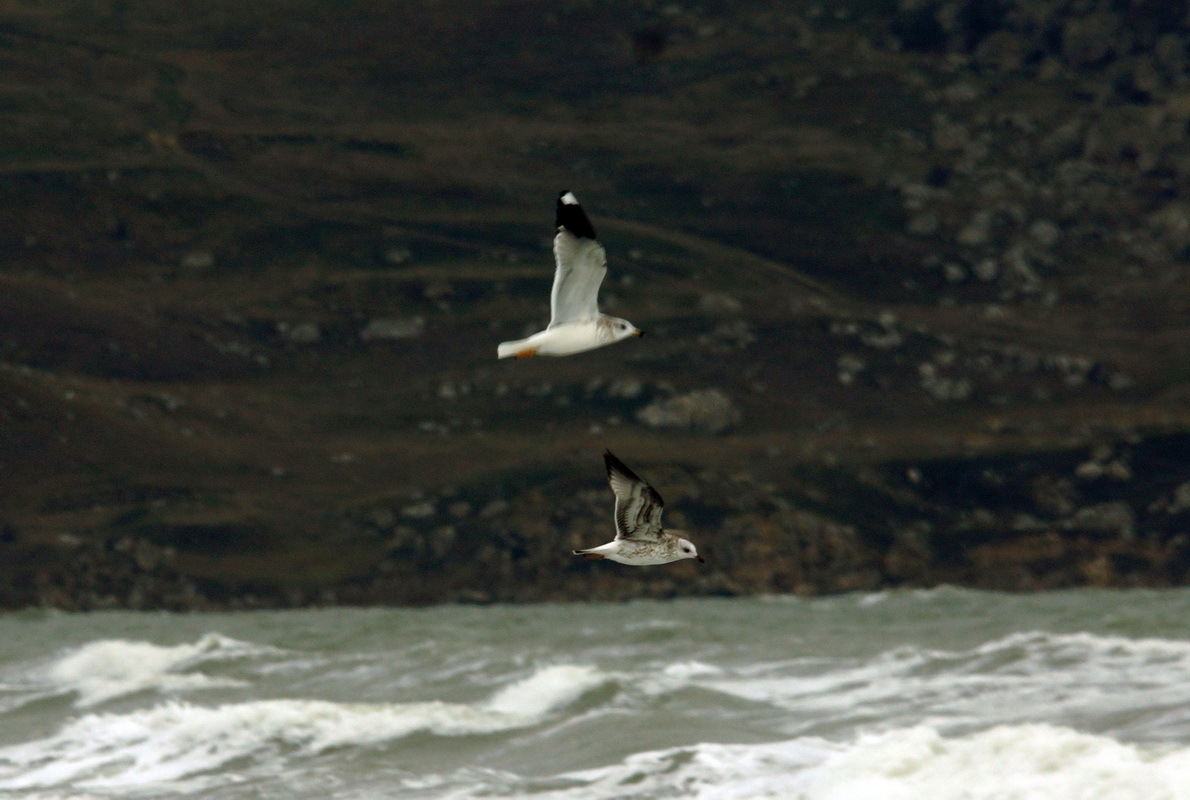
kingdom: Animalia
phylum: Chordata
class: Aves
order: Charadriiformes
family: Laridae
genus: Larus
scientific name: Larus canus
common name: Mew gull
